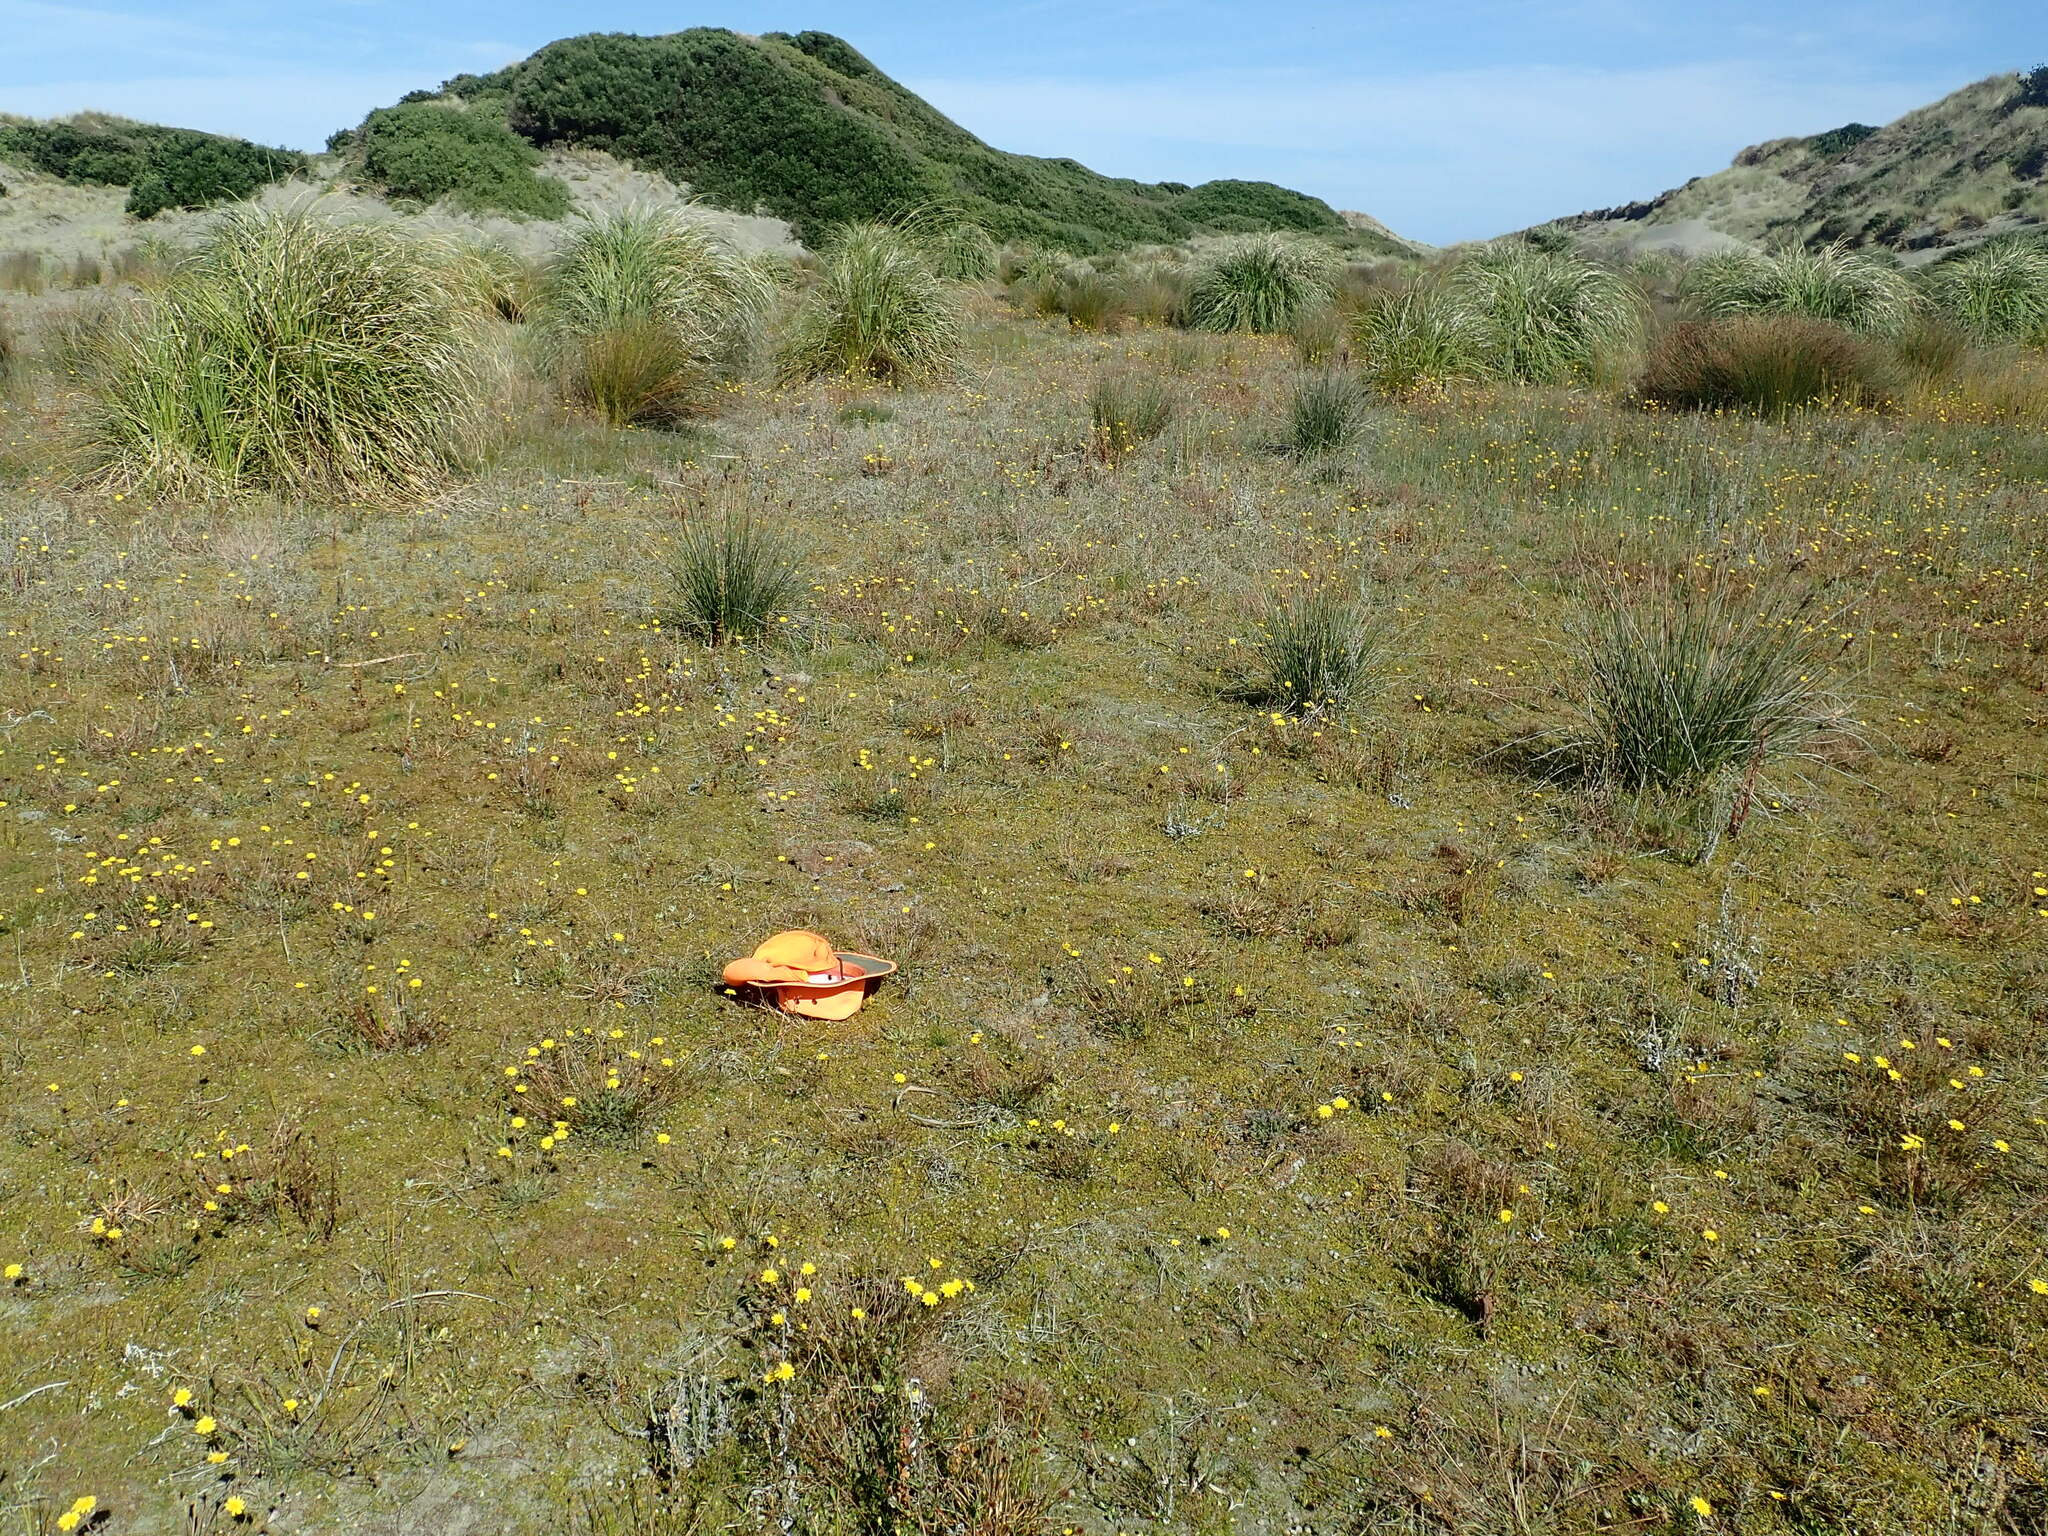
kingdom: Plantae
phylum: Tracheophyta
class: Magnoliopsida
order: Asterales
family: Goodeniaceae
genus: Goodenia
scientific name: Goodenia heenanii
